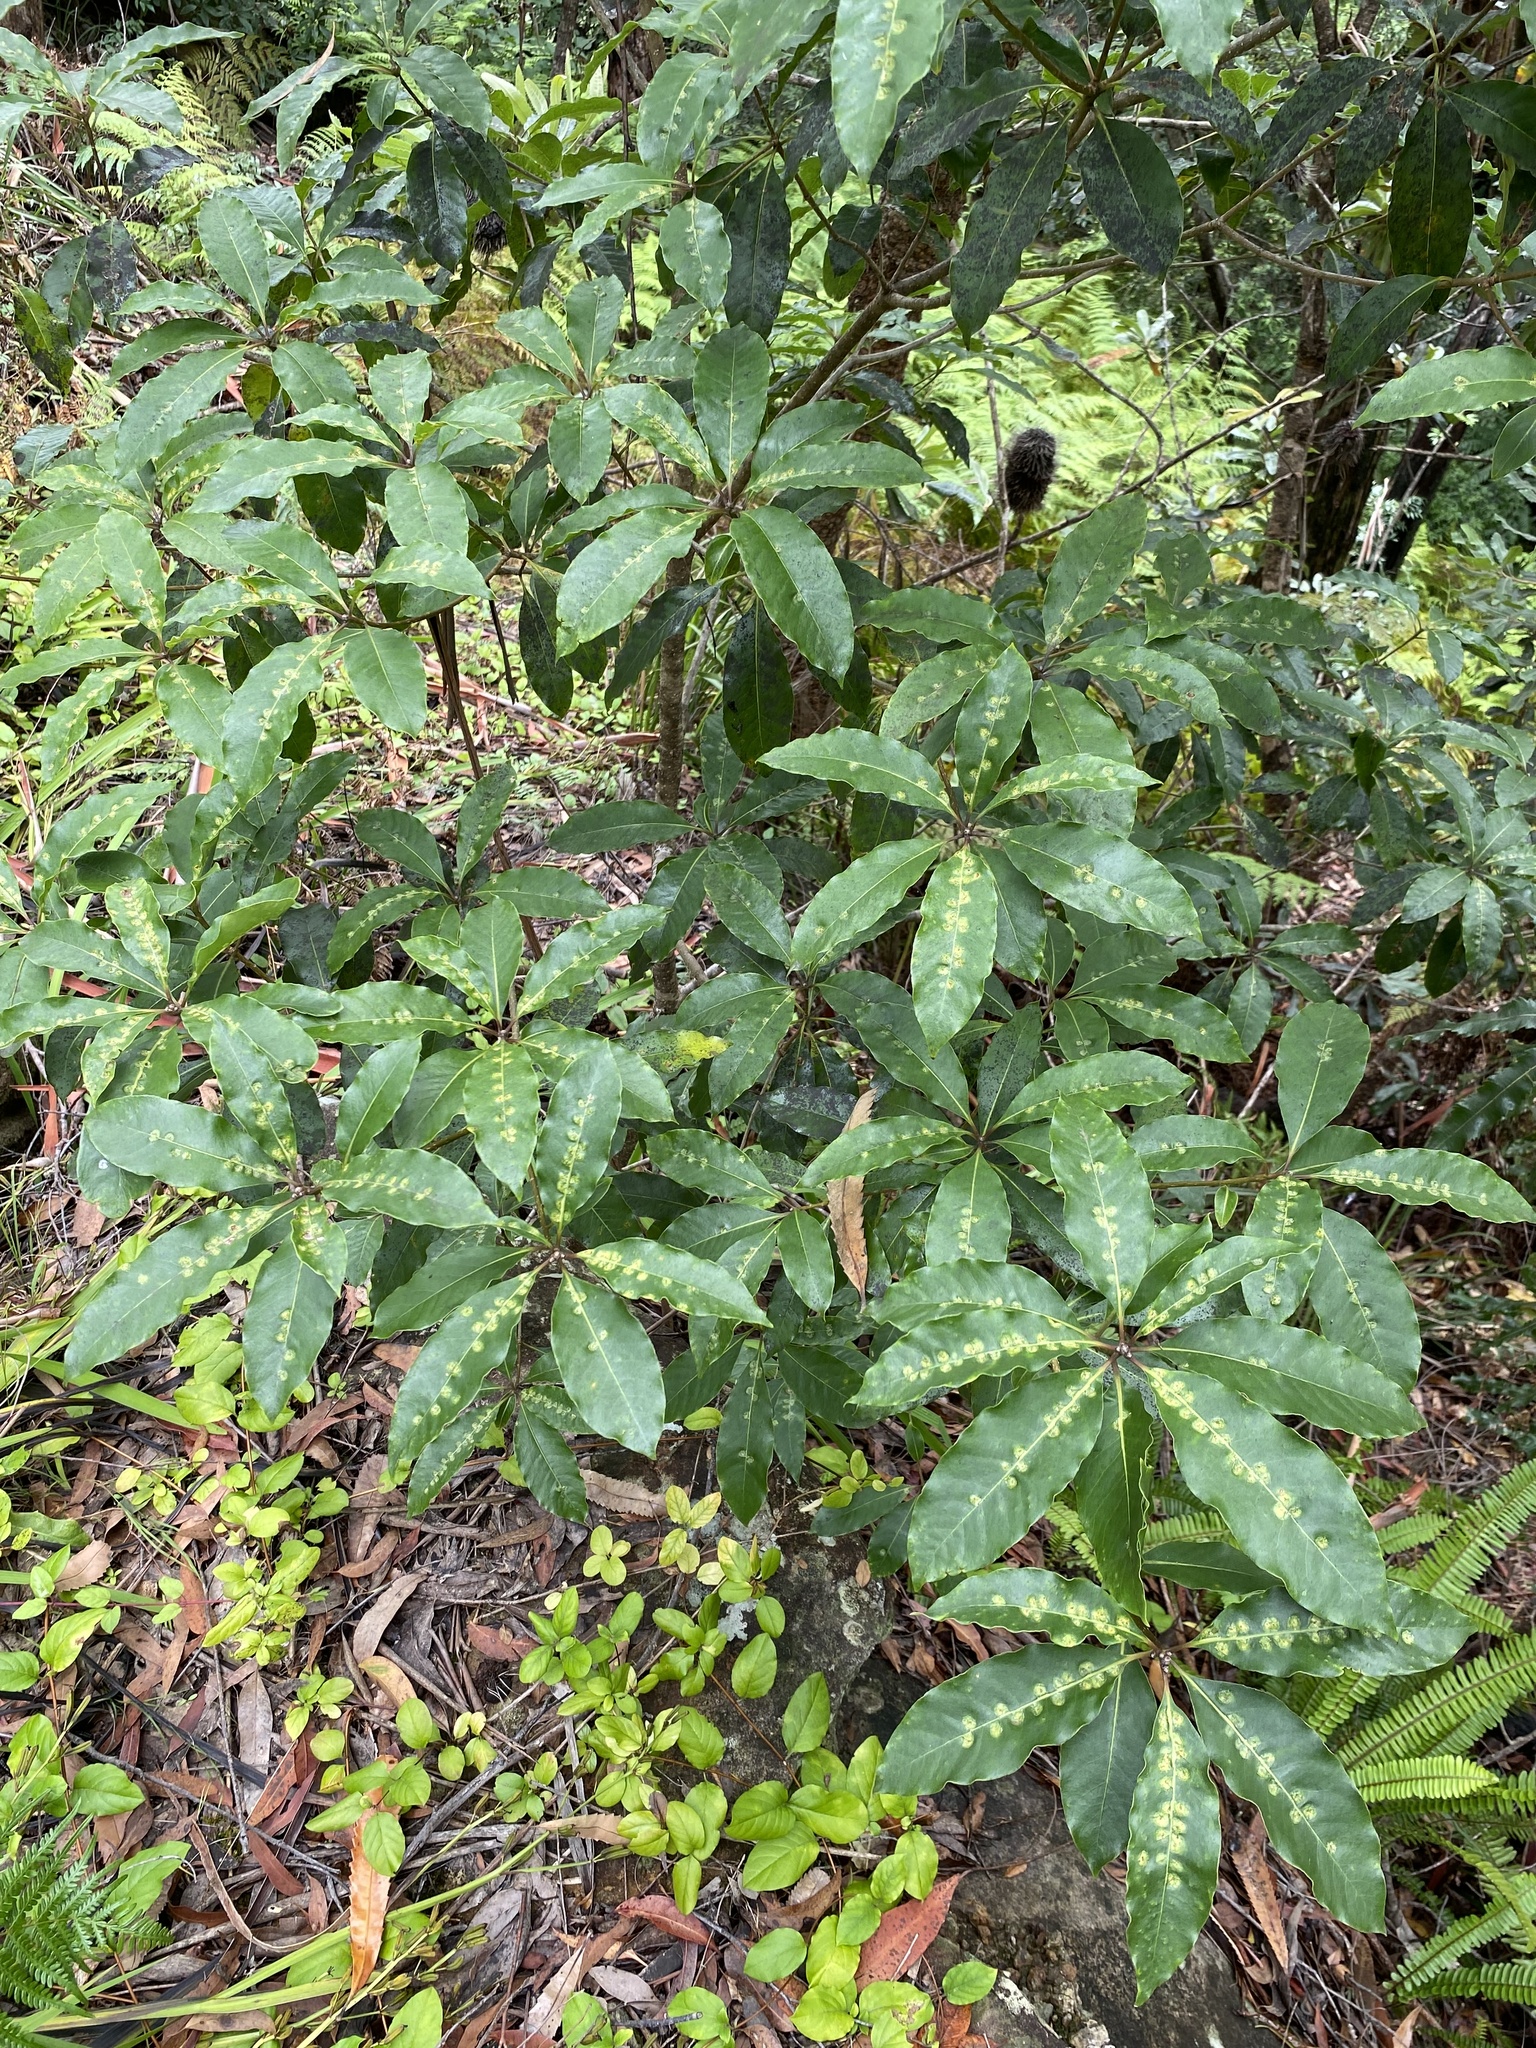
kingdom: Plantae
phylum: Tracheophyta
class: Magnoliopsida
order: Apiales
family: Pittosporaceae
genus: Pittosporum
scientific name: Pittosporum undulatum
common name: Australian cheesewood
